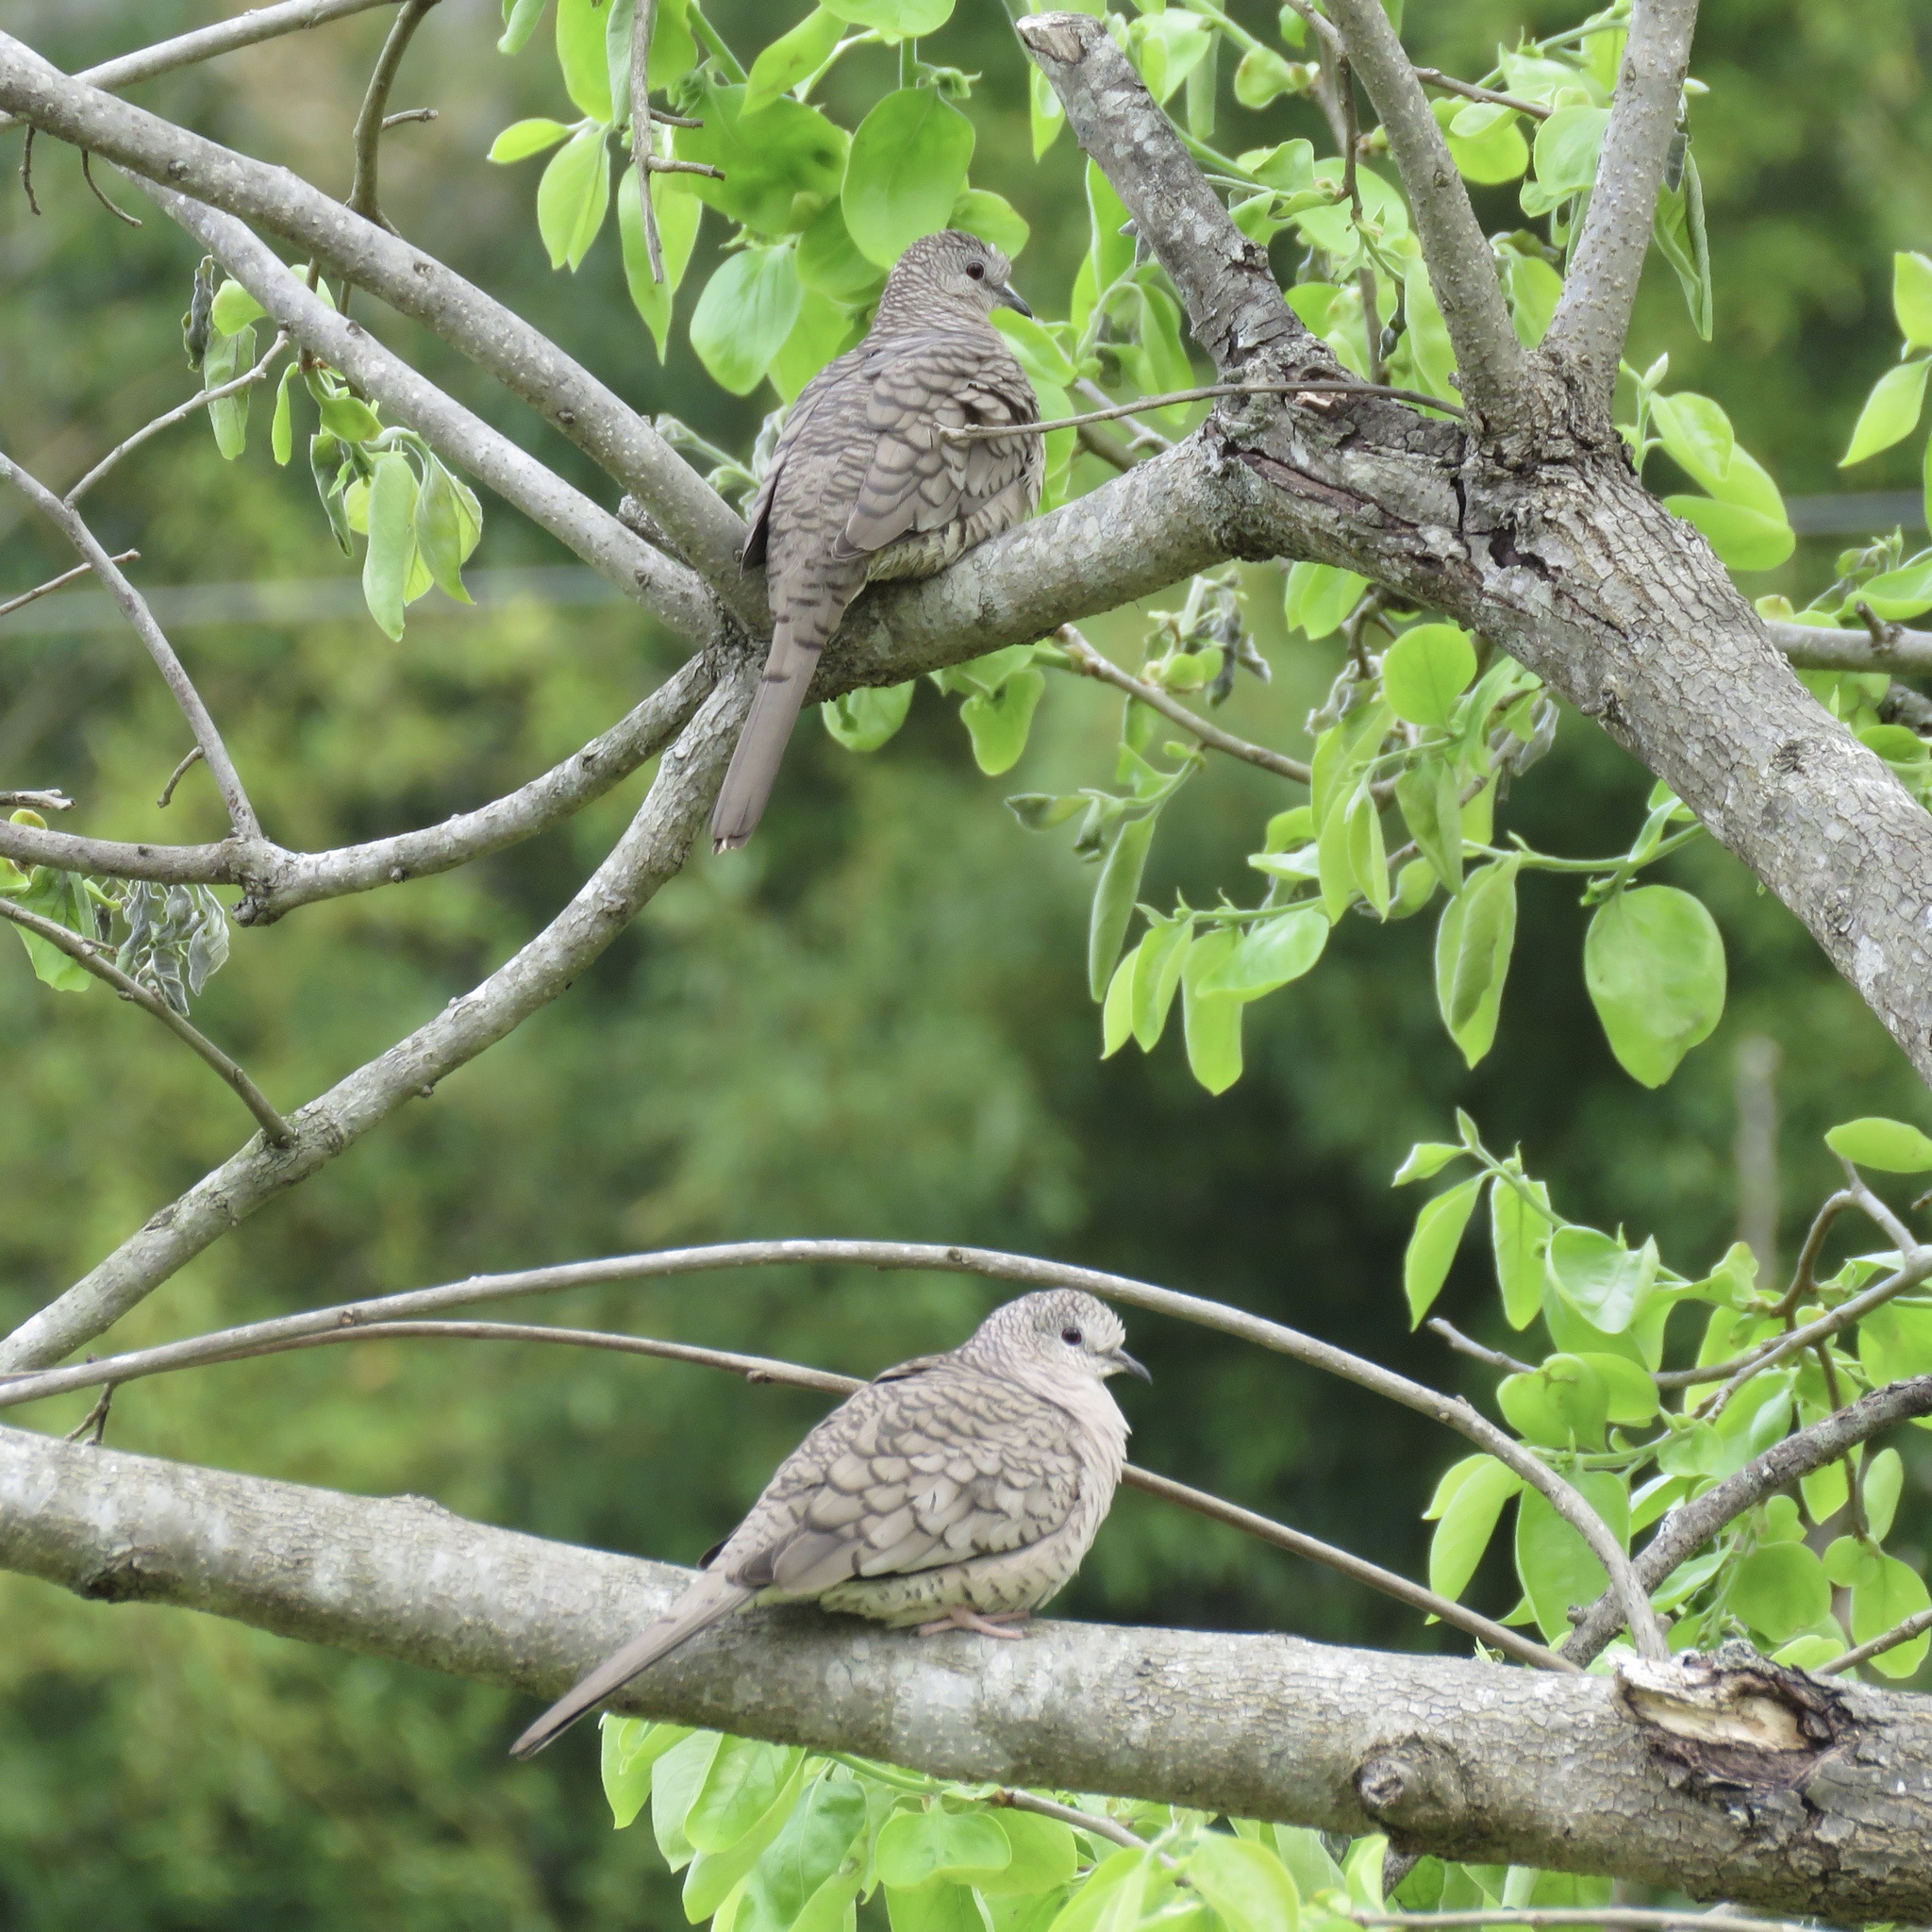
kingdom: Animalia
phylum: Chordata
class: Aves
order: Columbiformes
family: Columbidae
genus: Columbina
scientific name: Columbina inca
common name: Inca dove
